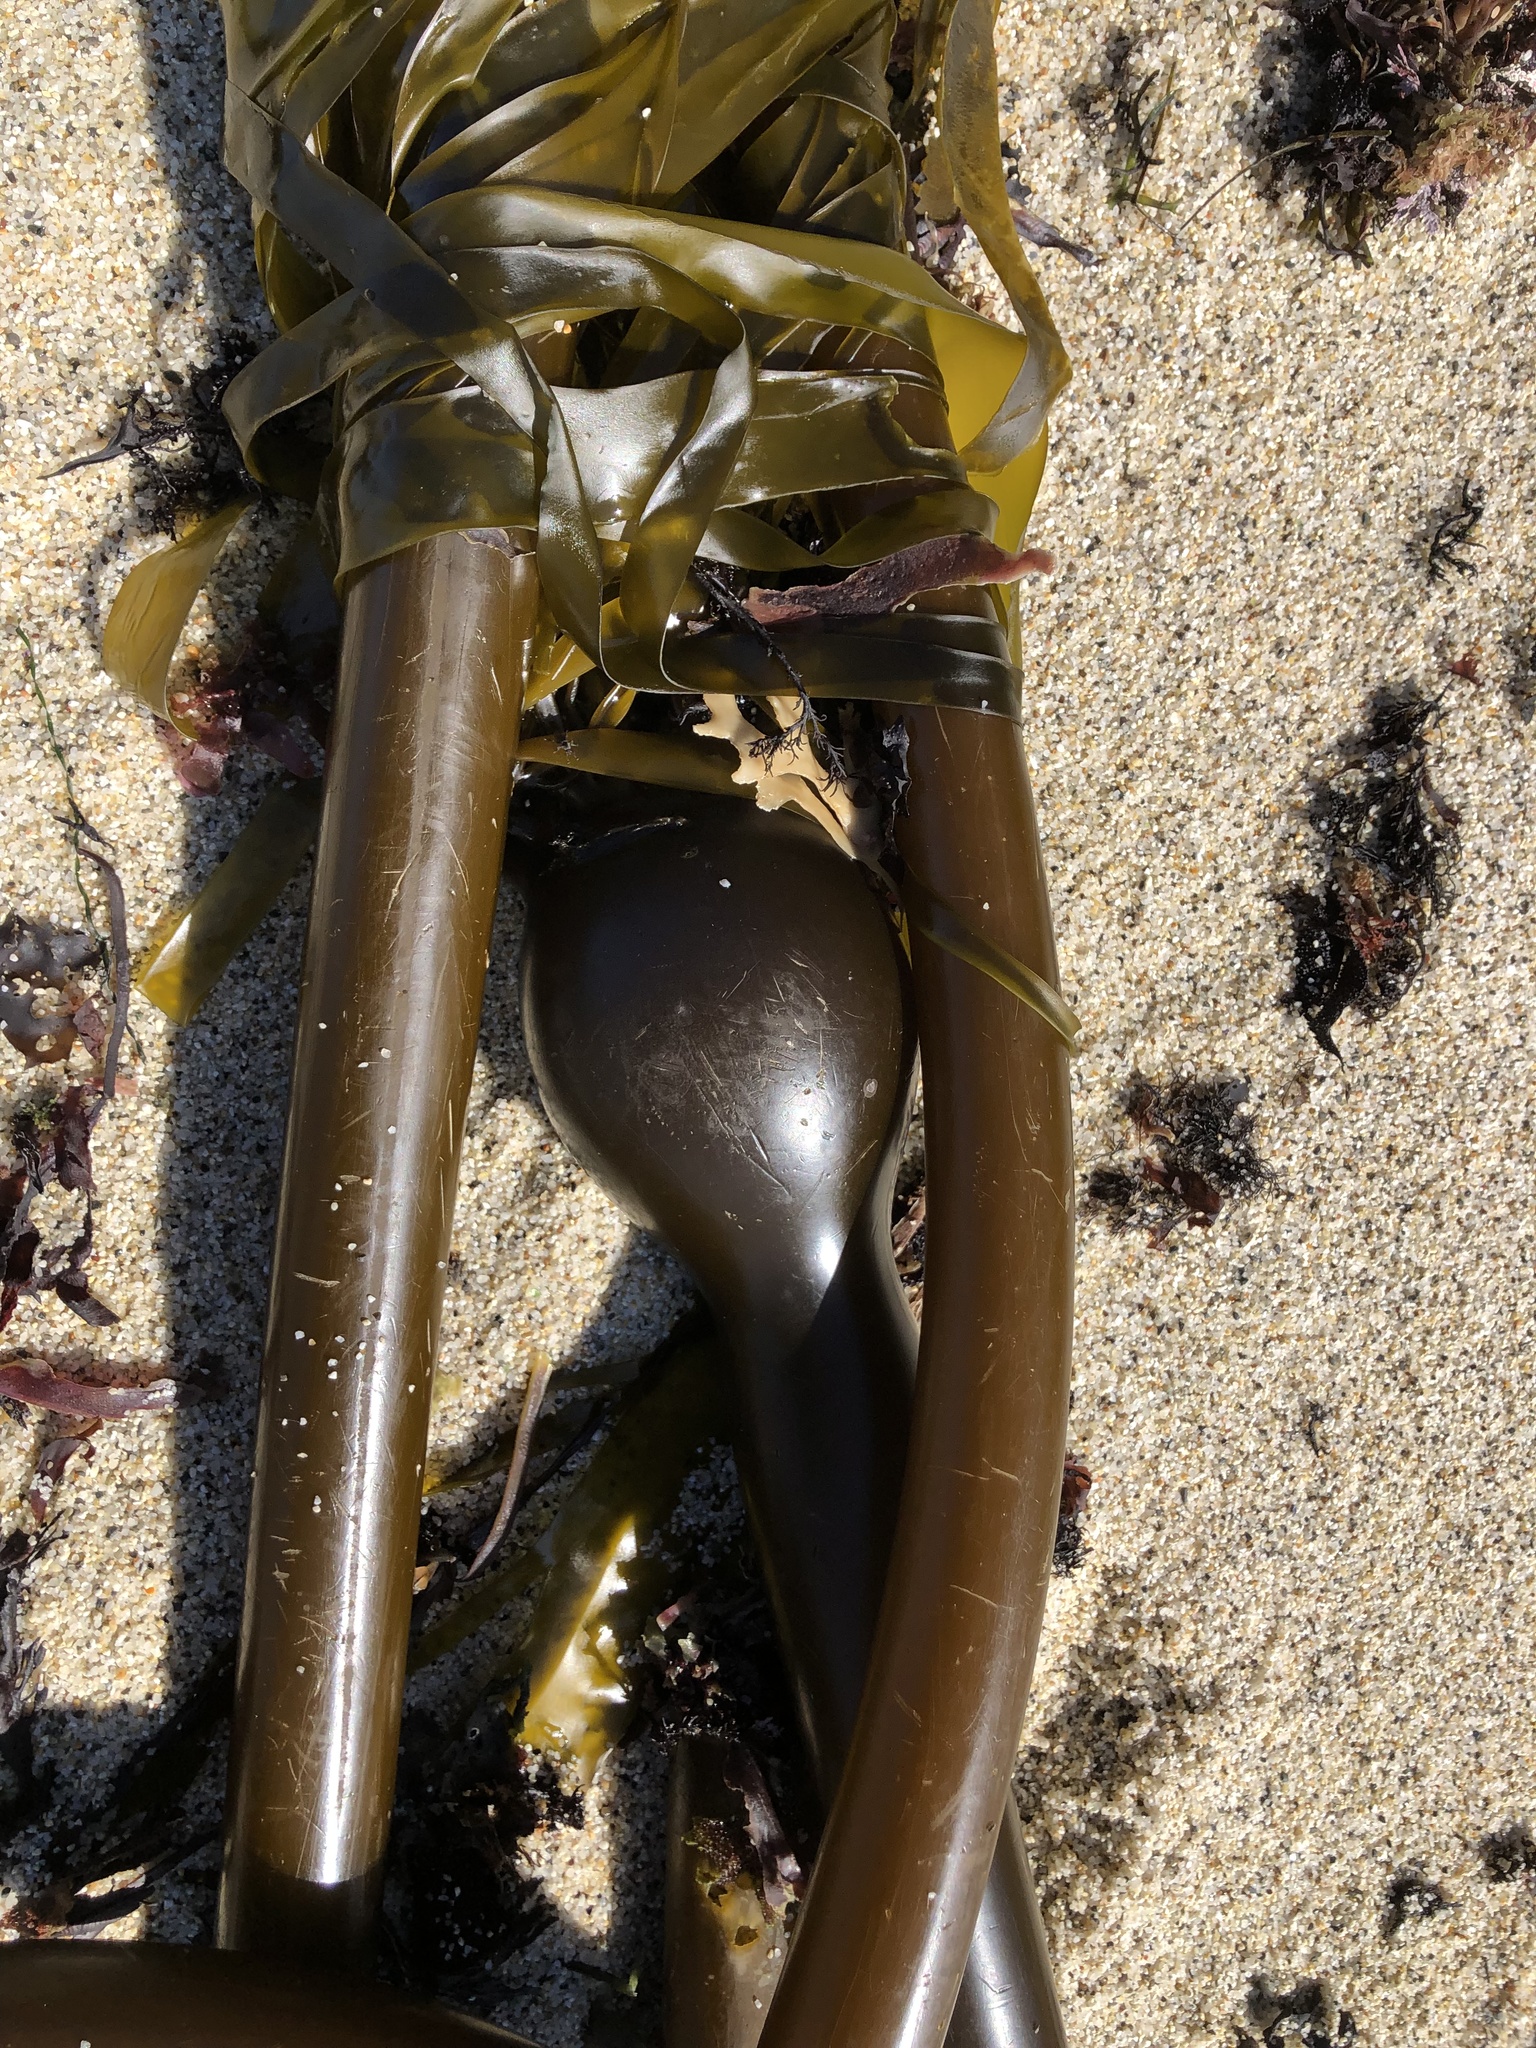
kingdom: Chromista
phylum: Ochrophyta
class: Phaeophyceae
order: Laminariales
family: Laminariaceae
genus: Nereocystis
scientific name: Nereocystis luetkeana
